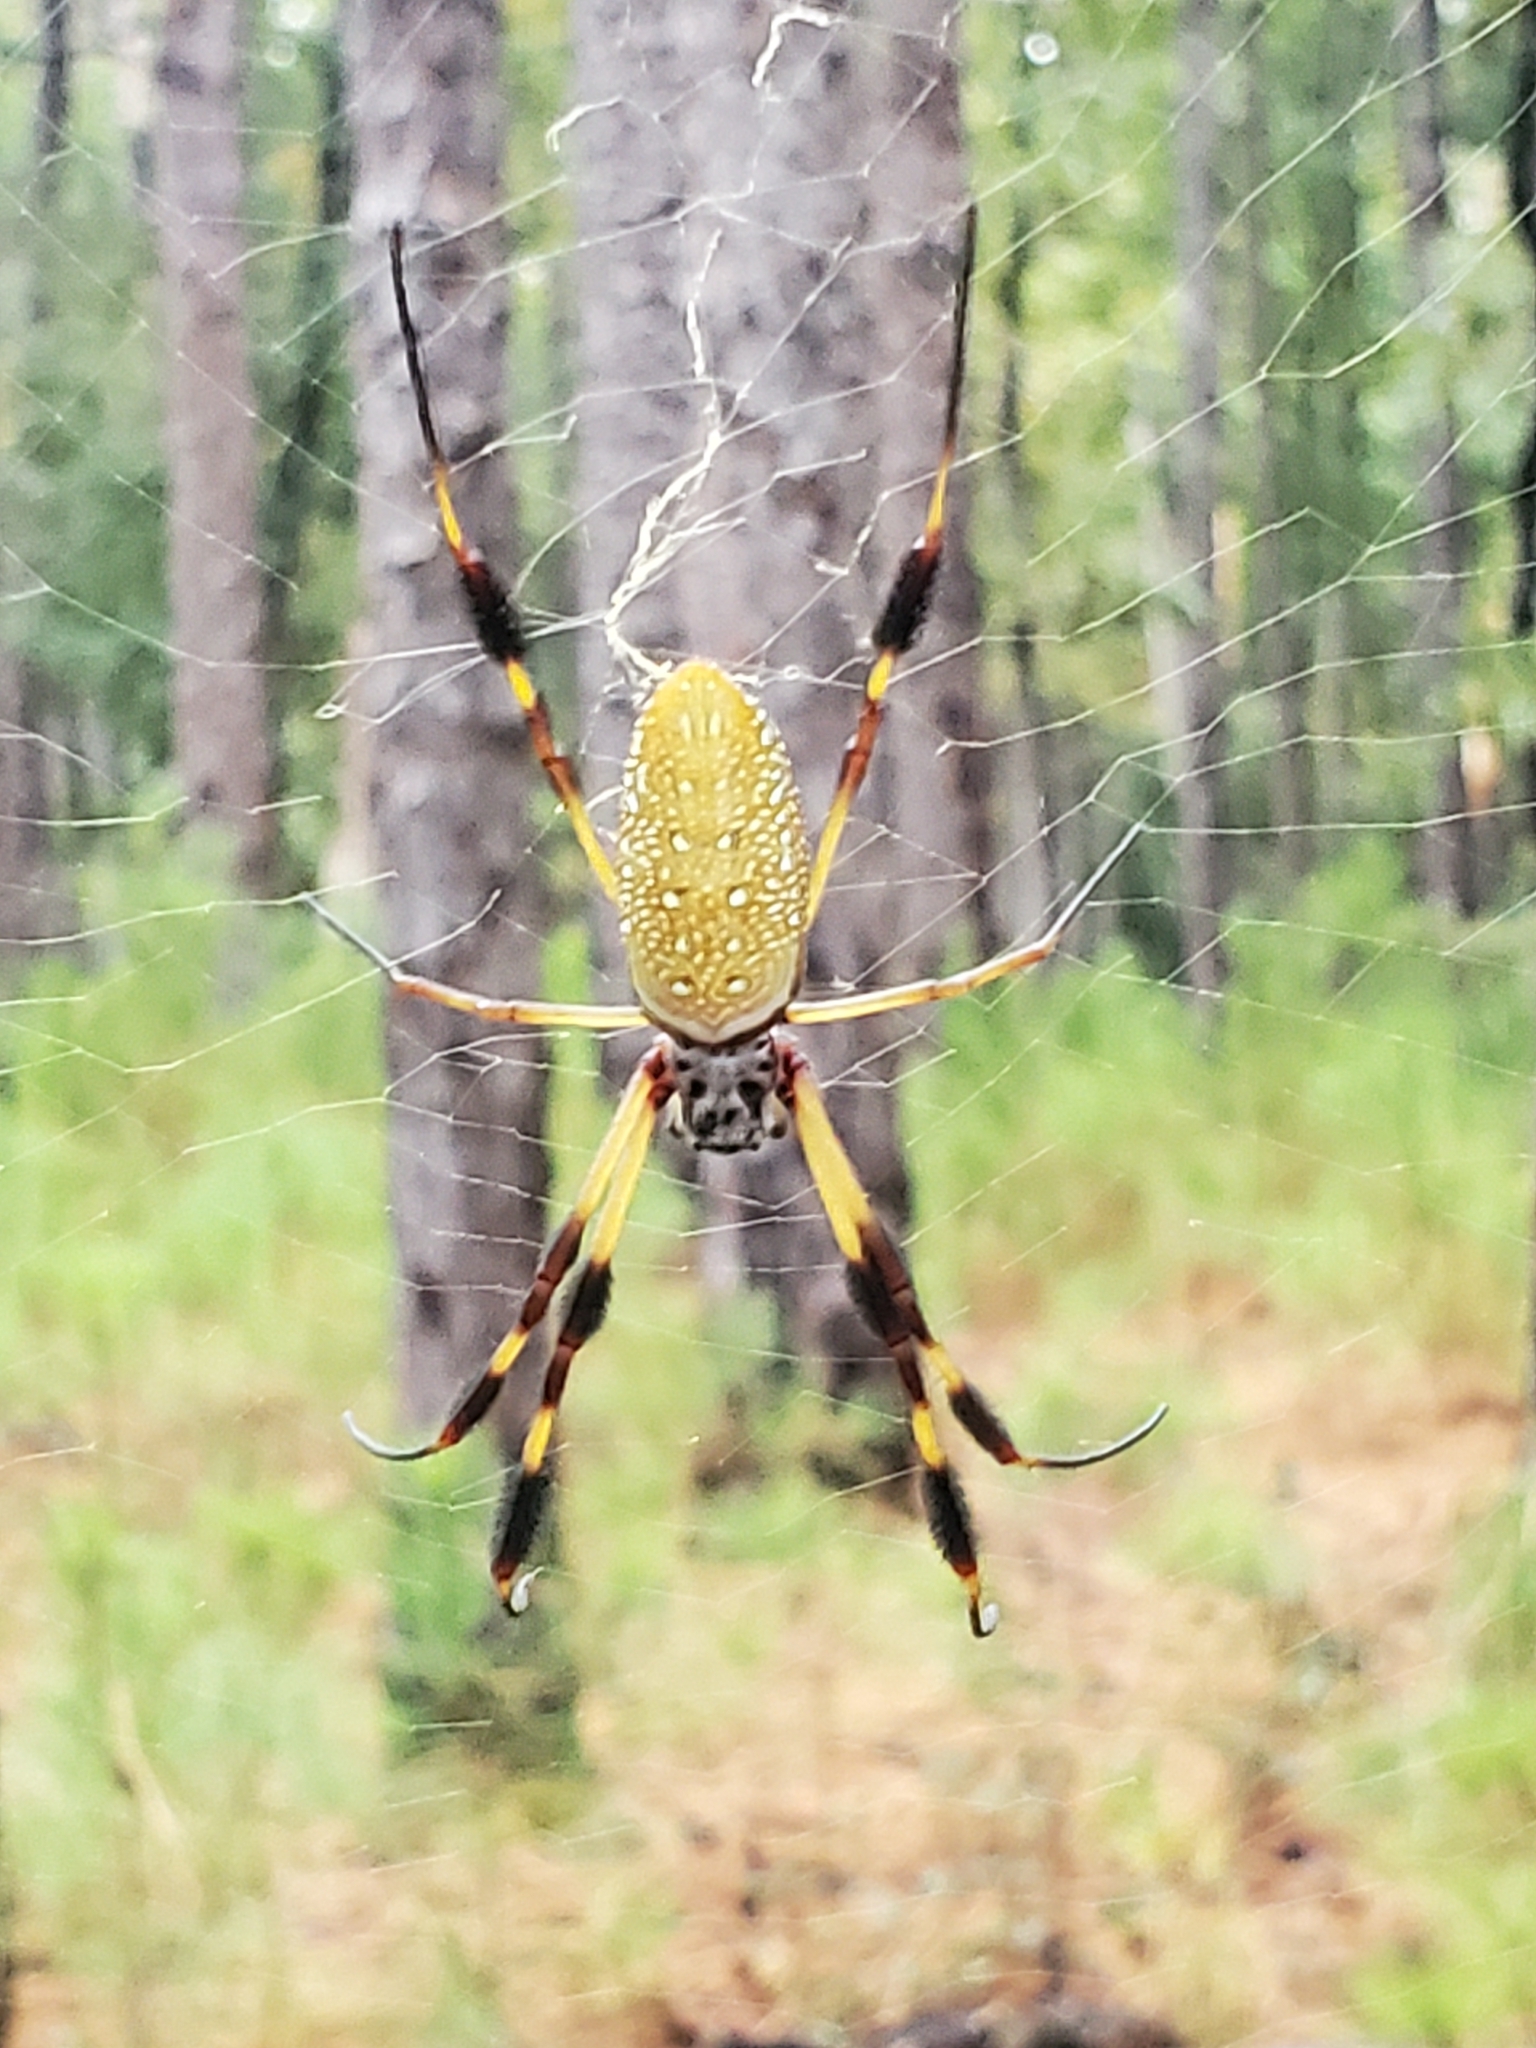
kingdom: Animalia
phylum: Arthropoda
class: Arachnida
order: Araneae
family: Araneidae
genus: Trichonephila
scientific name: Trichonephila clavipes
